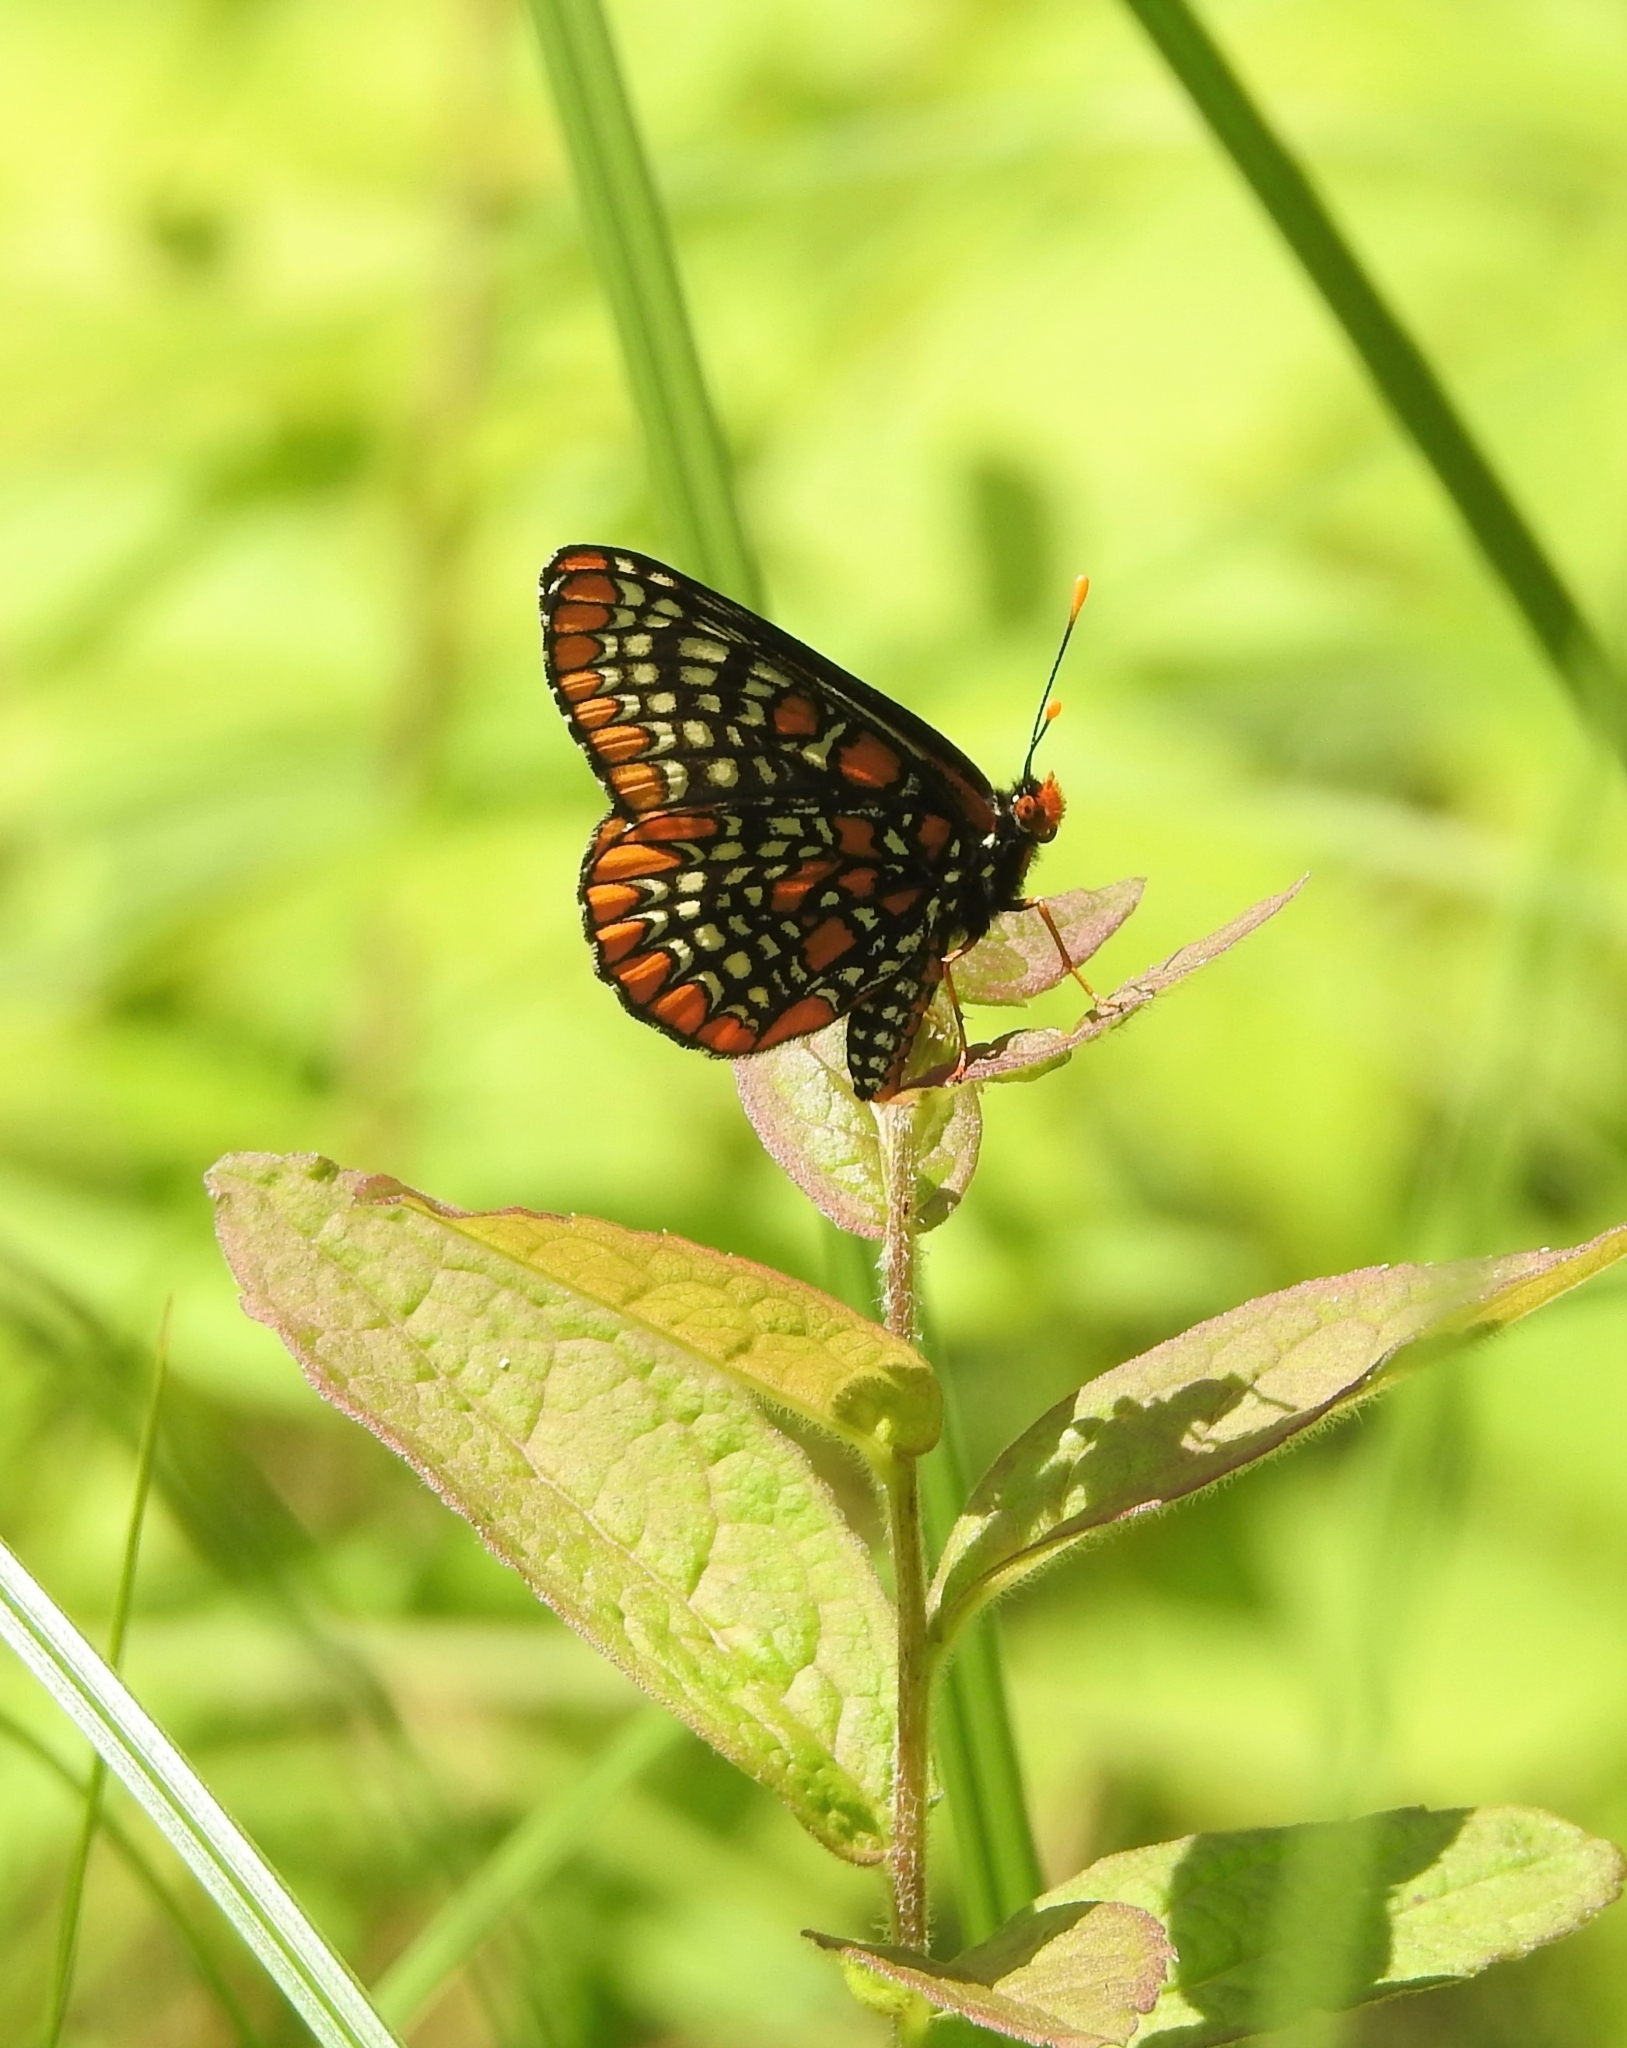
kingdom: Animalia
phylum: Arthropoda
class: Insecta
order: Lepidoptera
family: Nymphalidae
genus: Euphydryas
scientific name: Euphydryas phaeton
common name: Baltimore checkerspot
